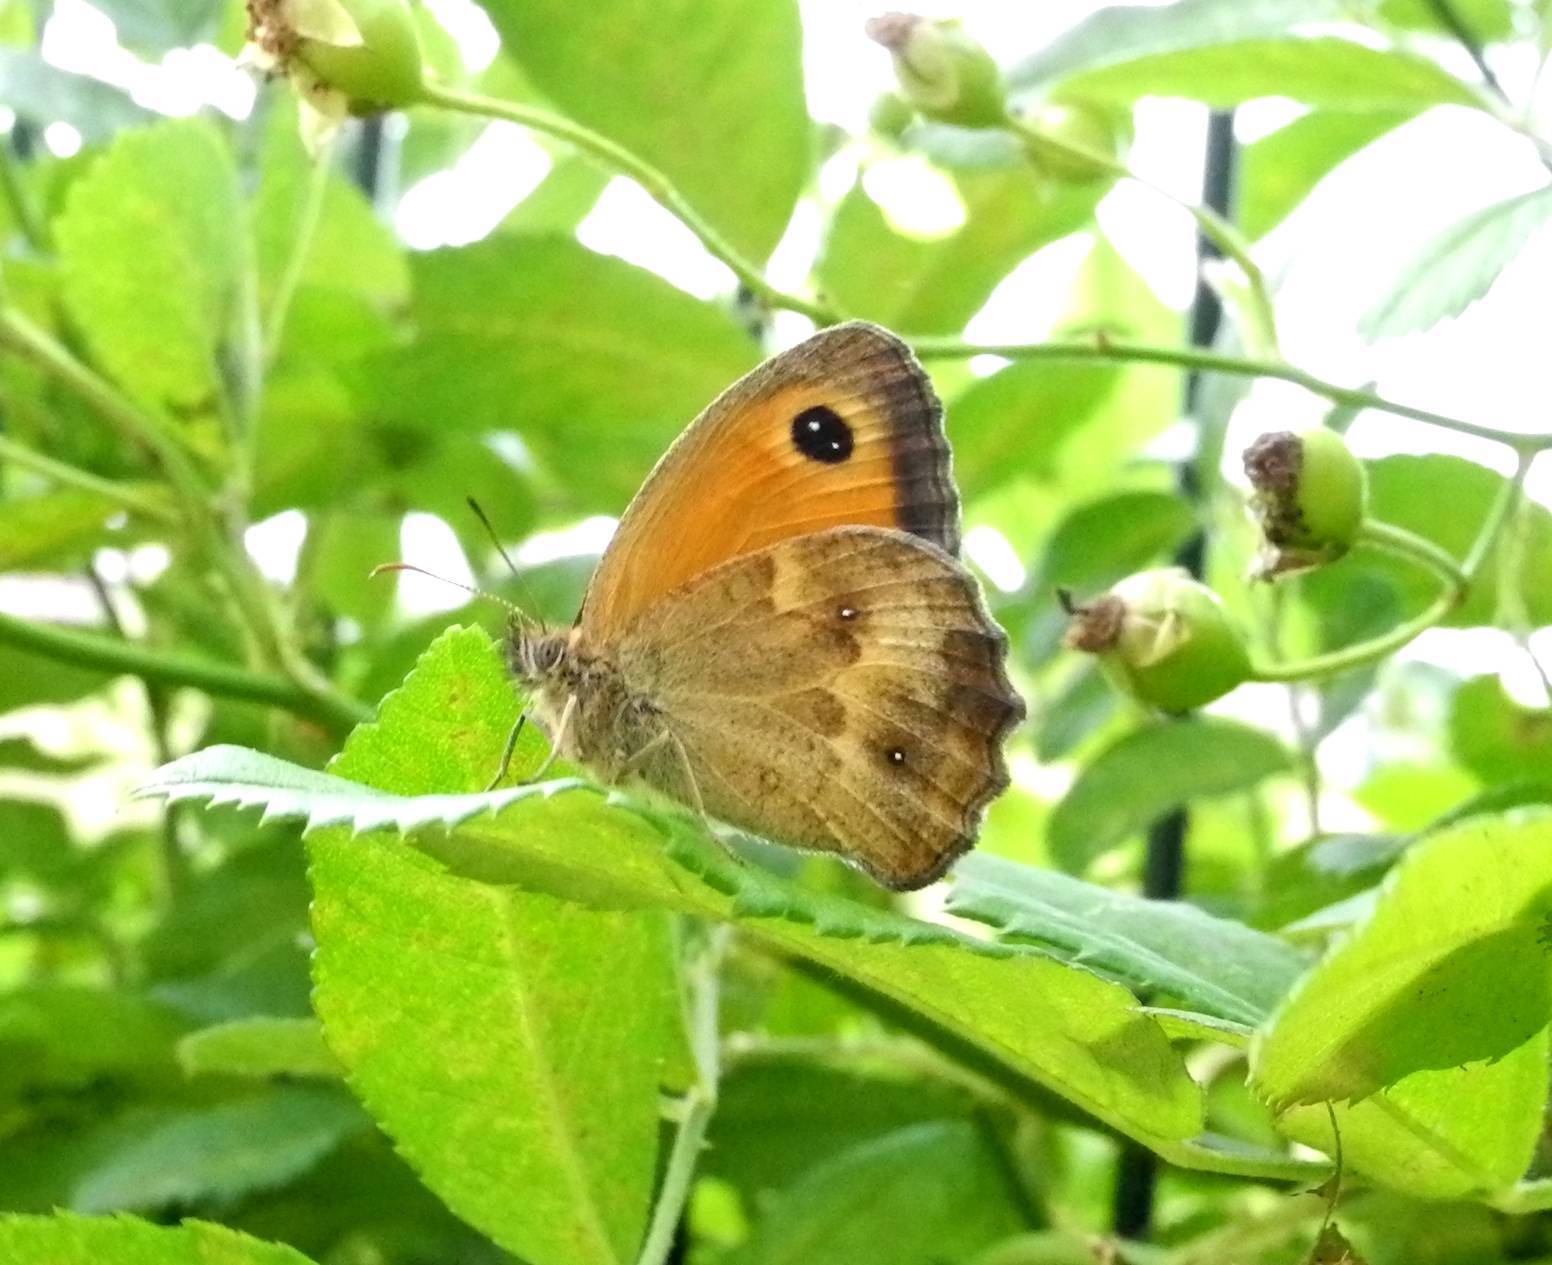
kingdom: Animalia
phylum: Arthropoda
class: Insecta
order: Lepidoptera
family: Nymphalidae
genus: Pyronia
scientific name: Pyronia tithonus
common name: Gatekeeper
